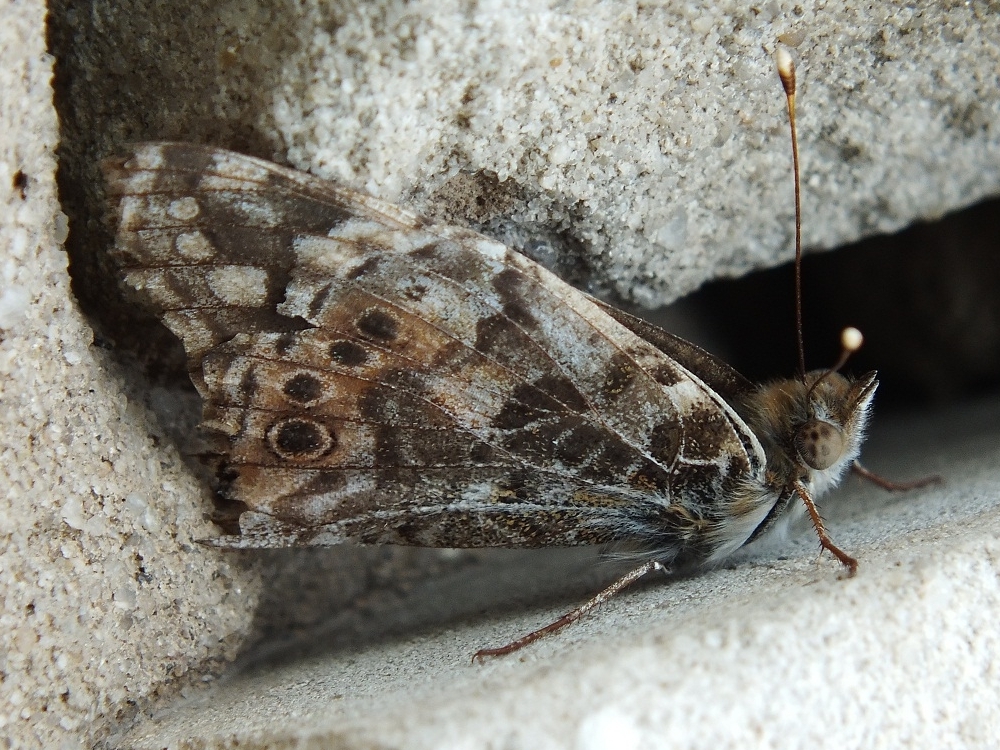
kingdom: Animalia
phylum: Arthropoda
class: Insecta
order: Lepidoptera
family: Nymphalidae
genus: Vanessa
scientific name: Vanessa cardui
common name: Painted lady
